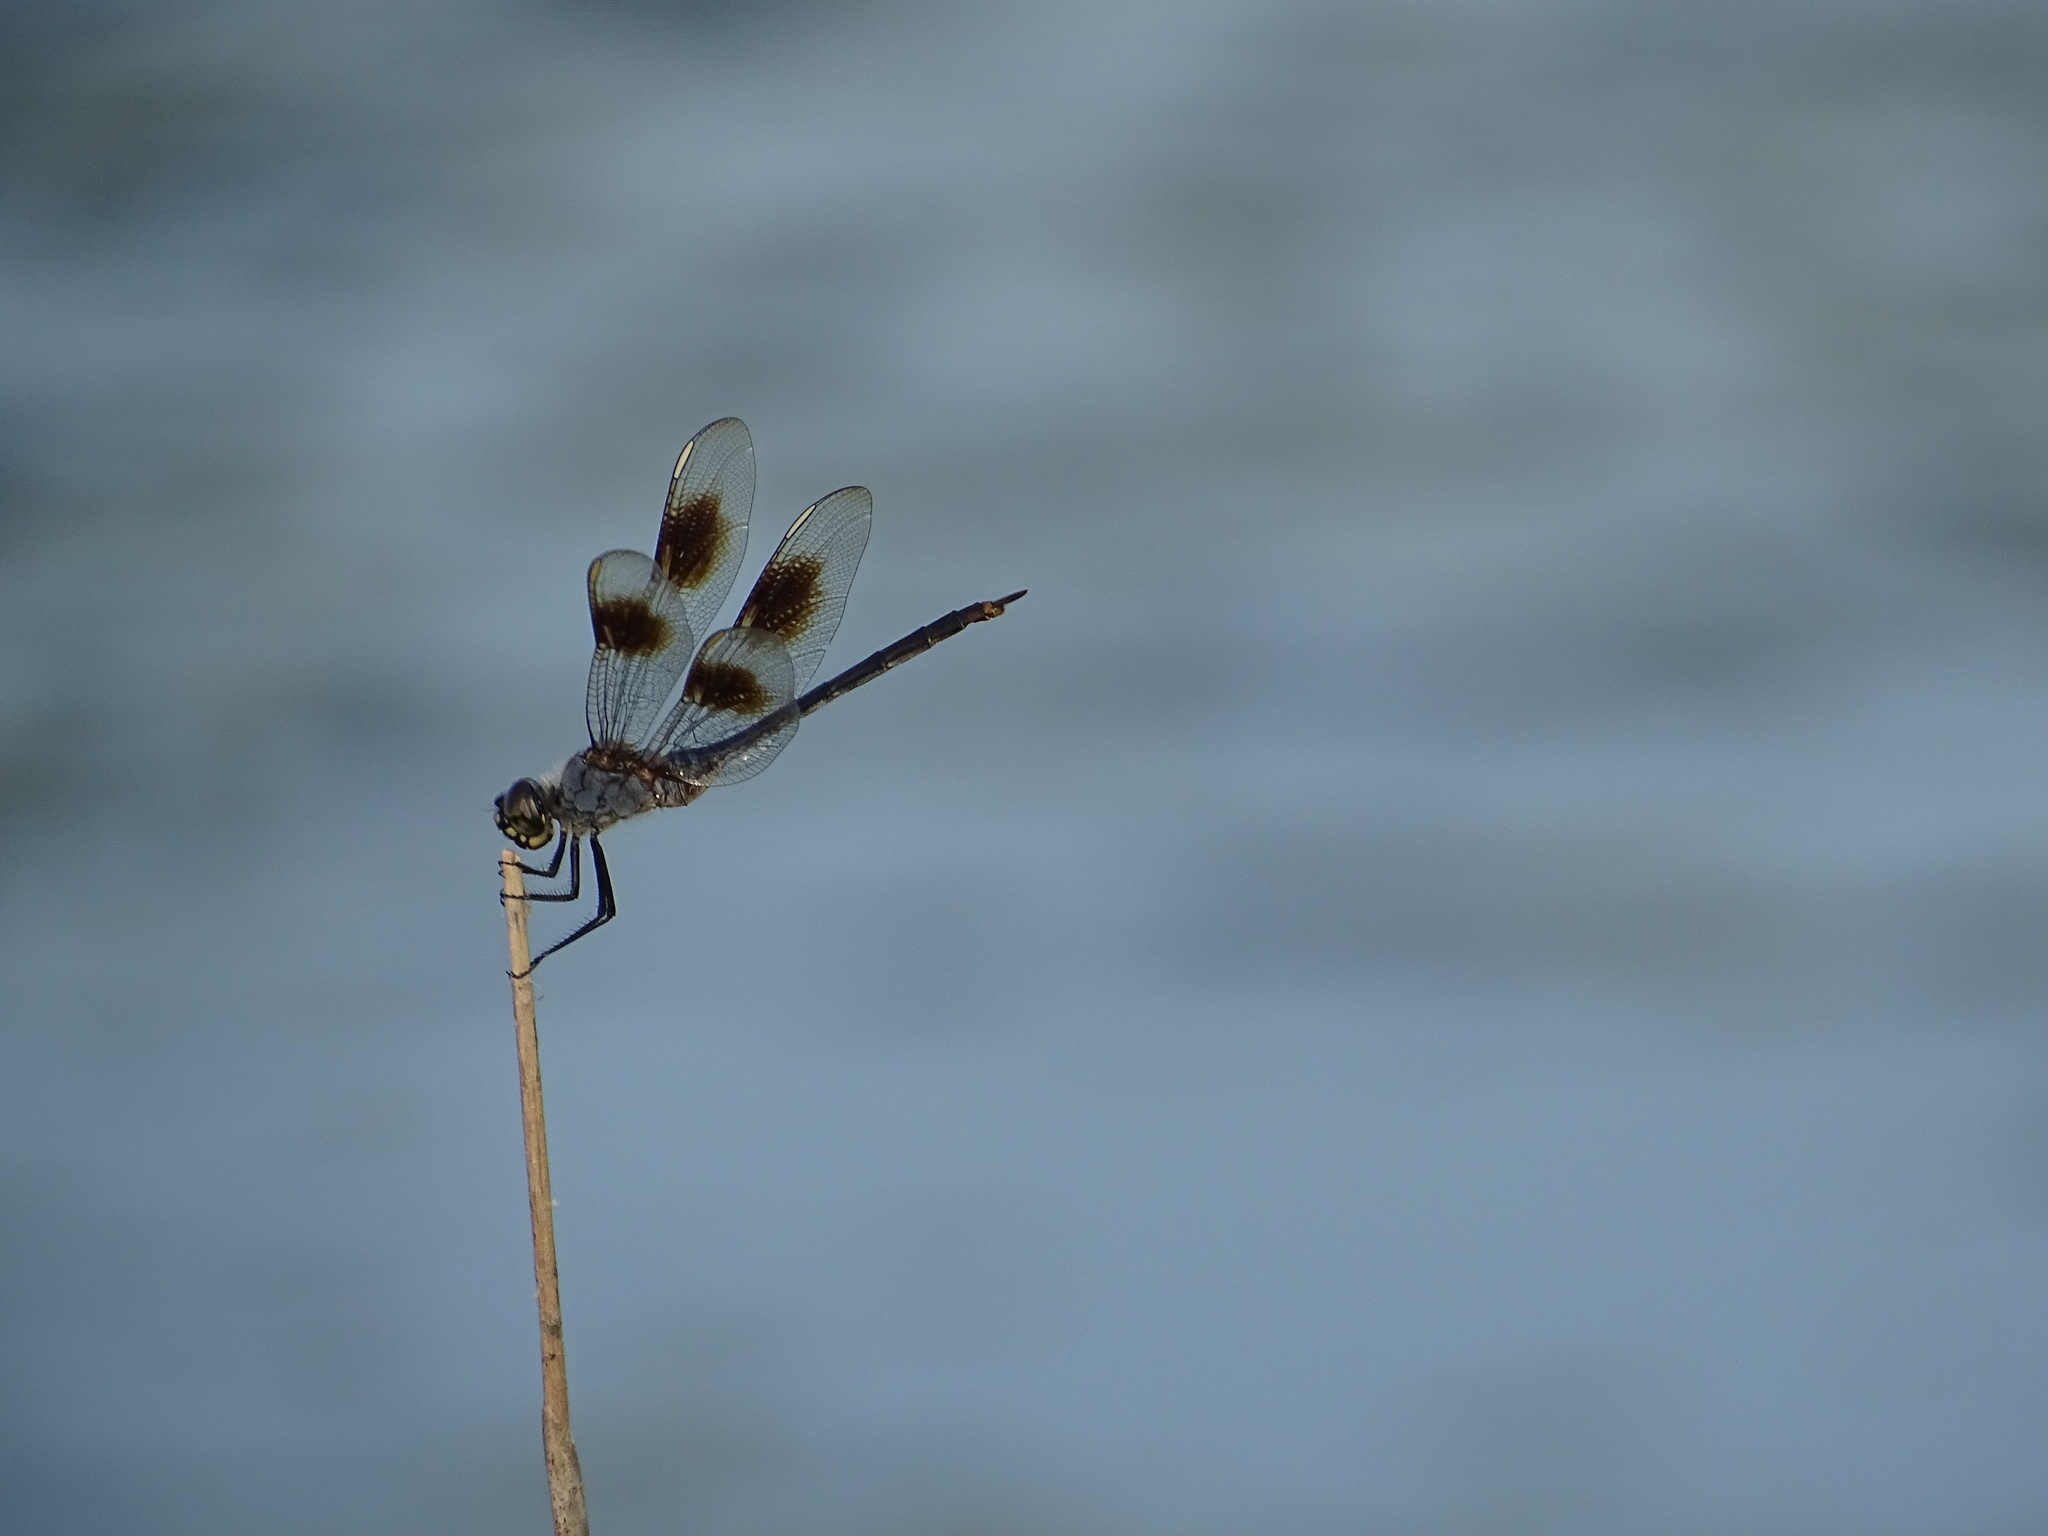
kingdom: Animalia
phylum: Arthropoda
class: Insecta
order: Odonata
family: Libellulidae
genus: Brachymesia
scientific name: Brachymesia gravida
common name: Four-spotted pennant
